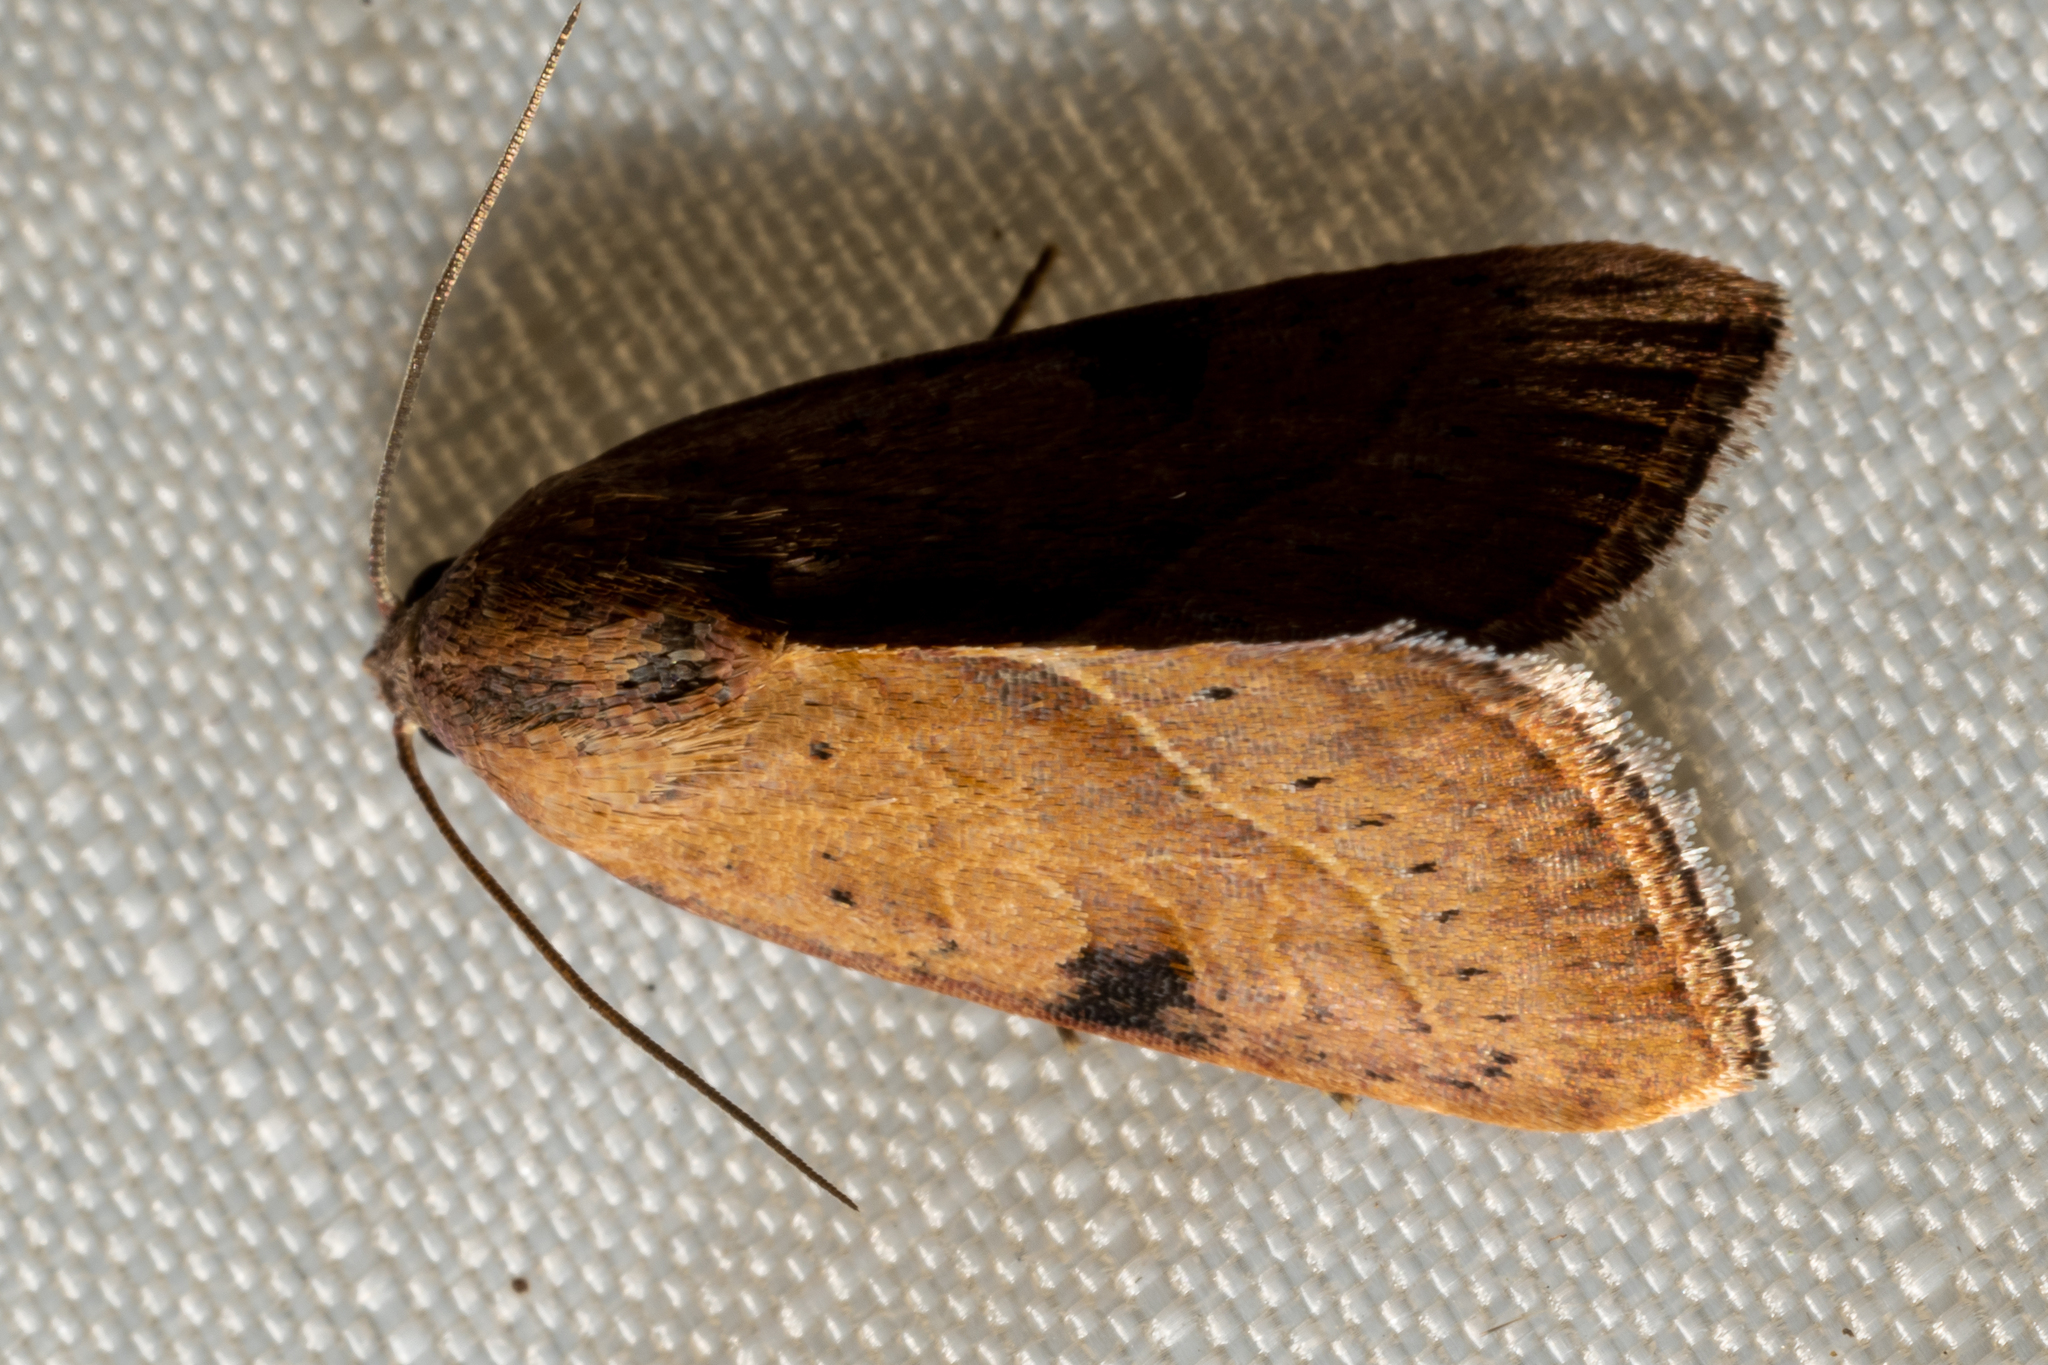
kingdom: Animalia
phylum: Arthropoda
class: Insecta
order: Lepidoptera
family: Noctuidae
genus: Galgula
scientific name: Galgula partita
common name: Wedgeling
